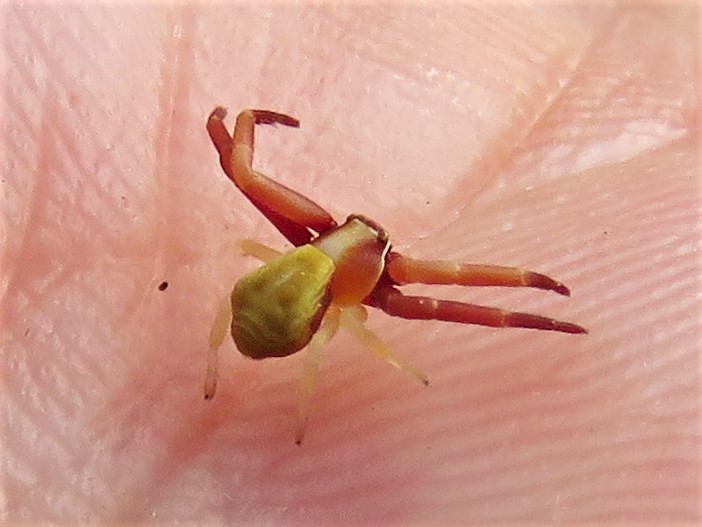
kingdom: Animalia
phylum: Arthropoda
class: Arachnida
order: Araneae
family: Thomisidae
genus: Misumenoides
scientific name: Misumenoides formosipes
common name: White-banded crab spider
